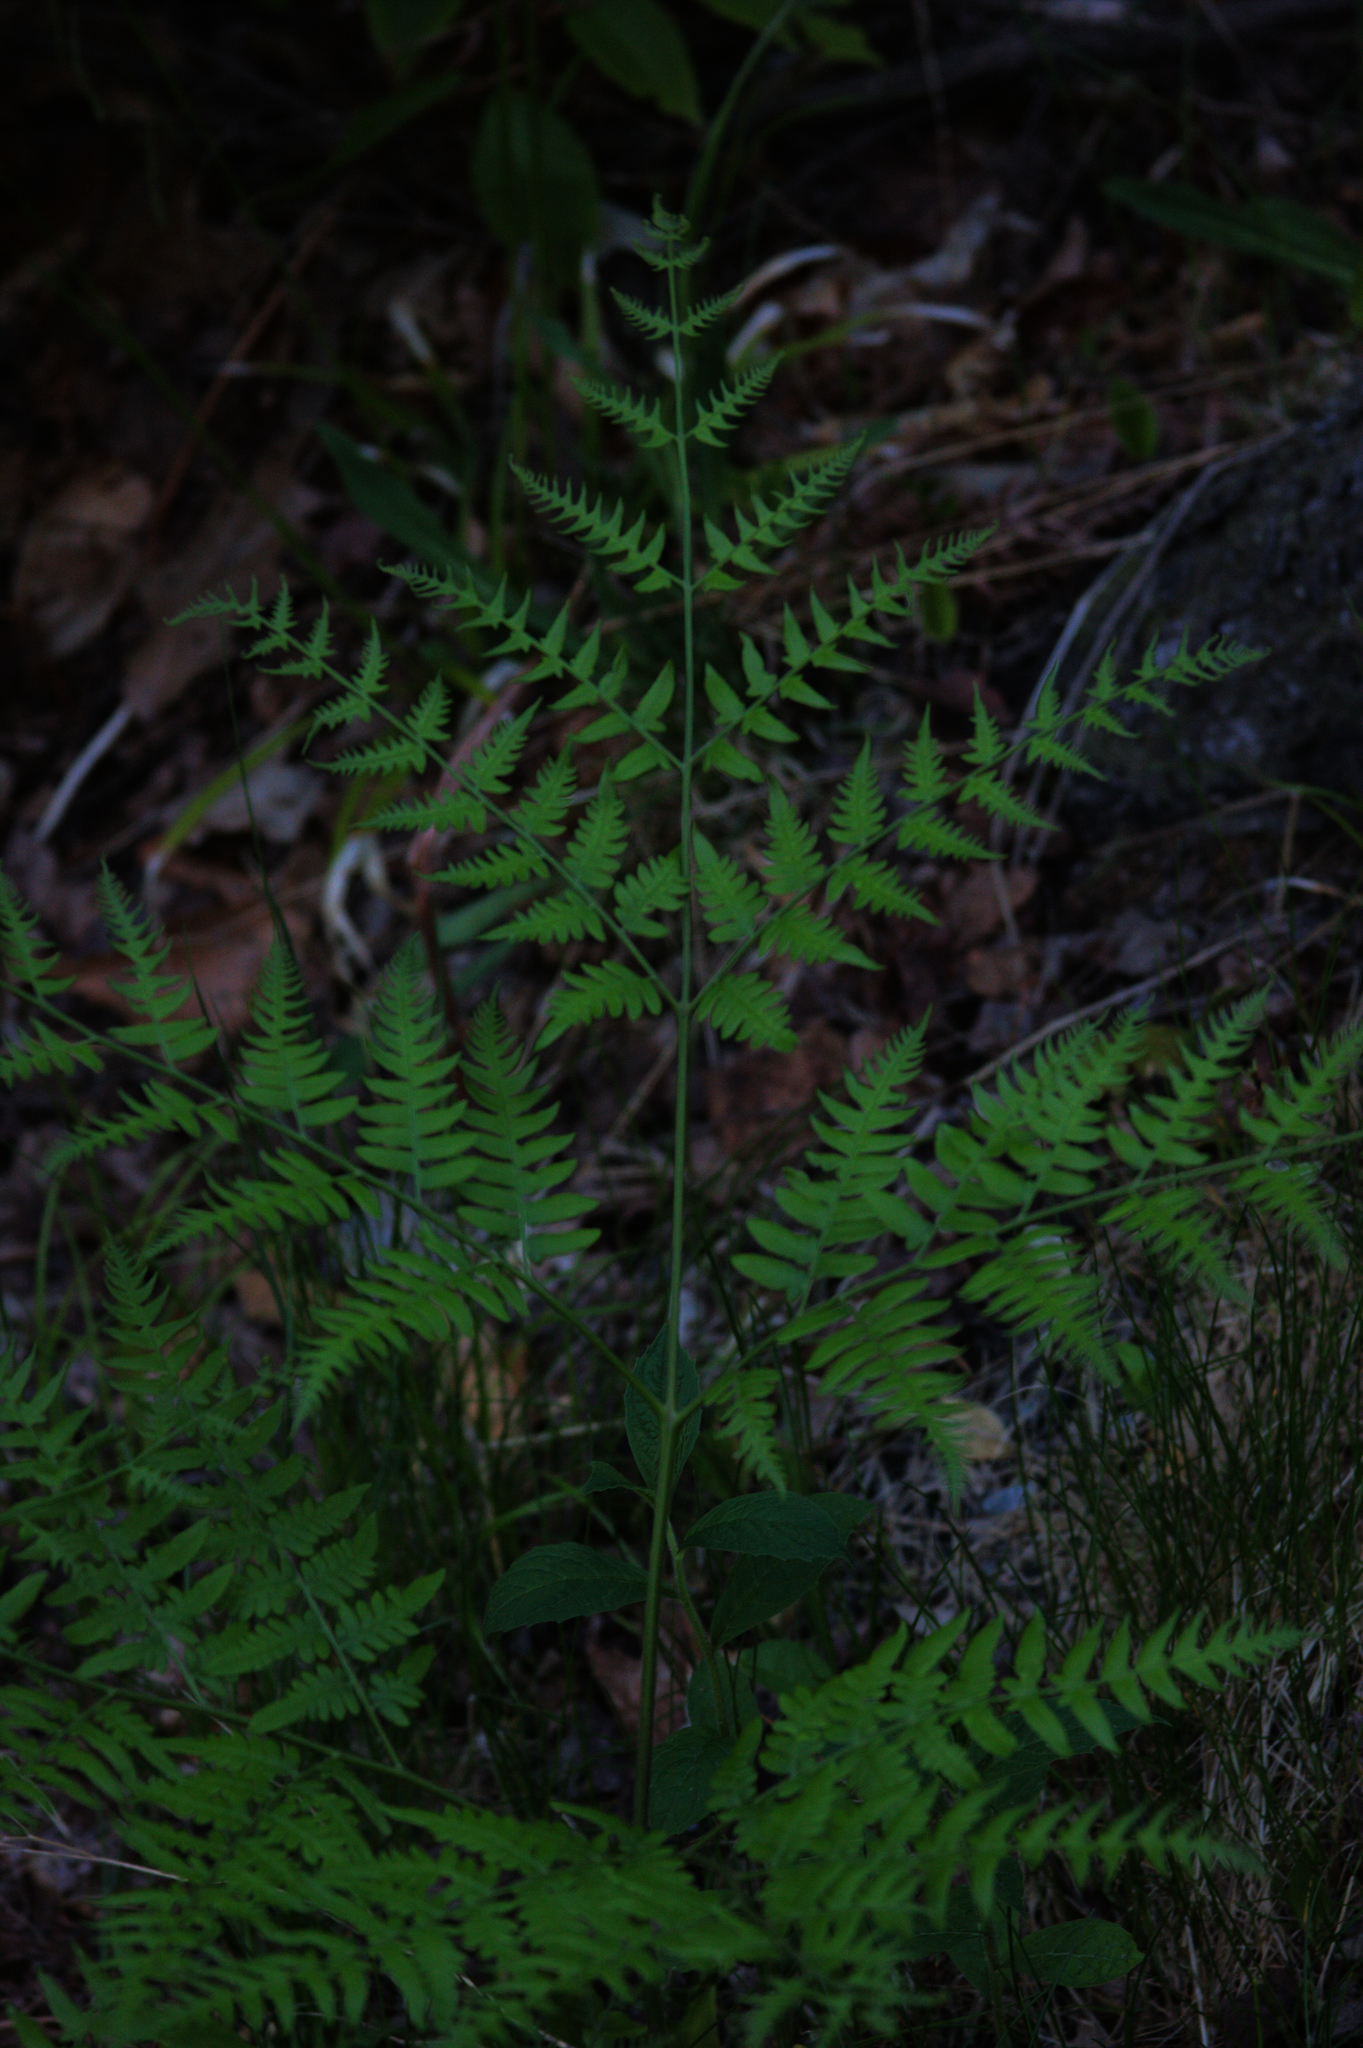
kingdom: Plantae
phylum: Tracheophyta
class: Polypodiopsida
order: Polypodiales
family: Dennstaedtiaceae
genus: Pteridium
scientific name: Pteridium aquilinum
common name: Bracken
